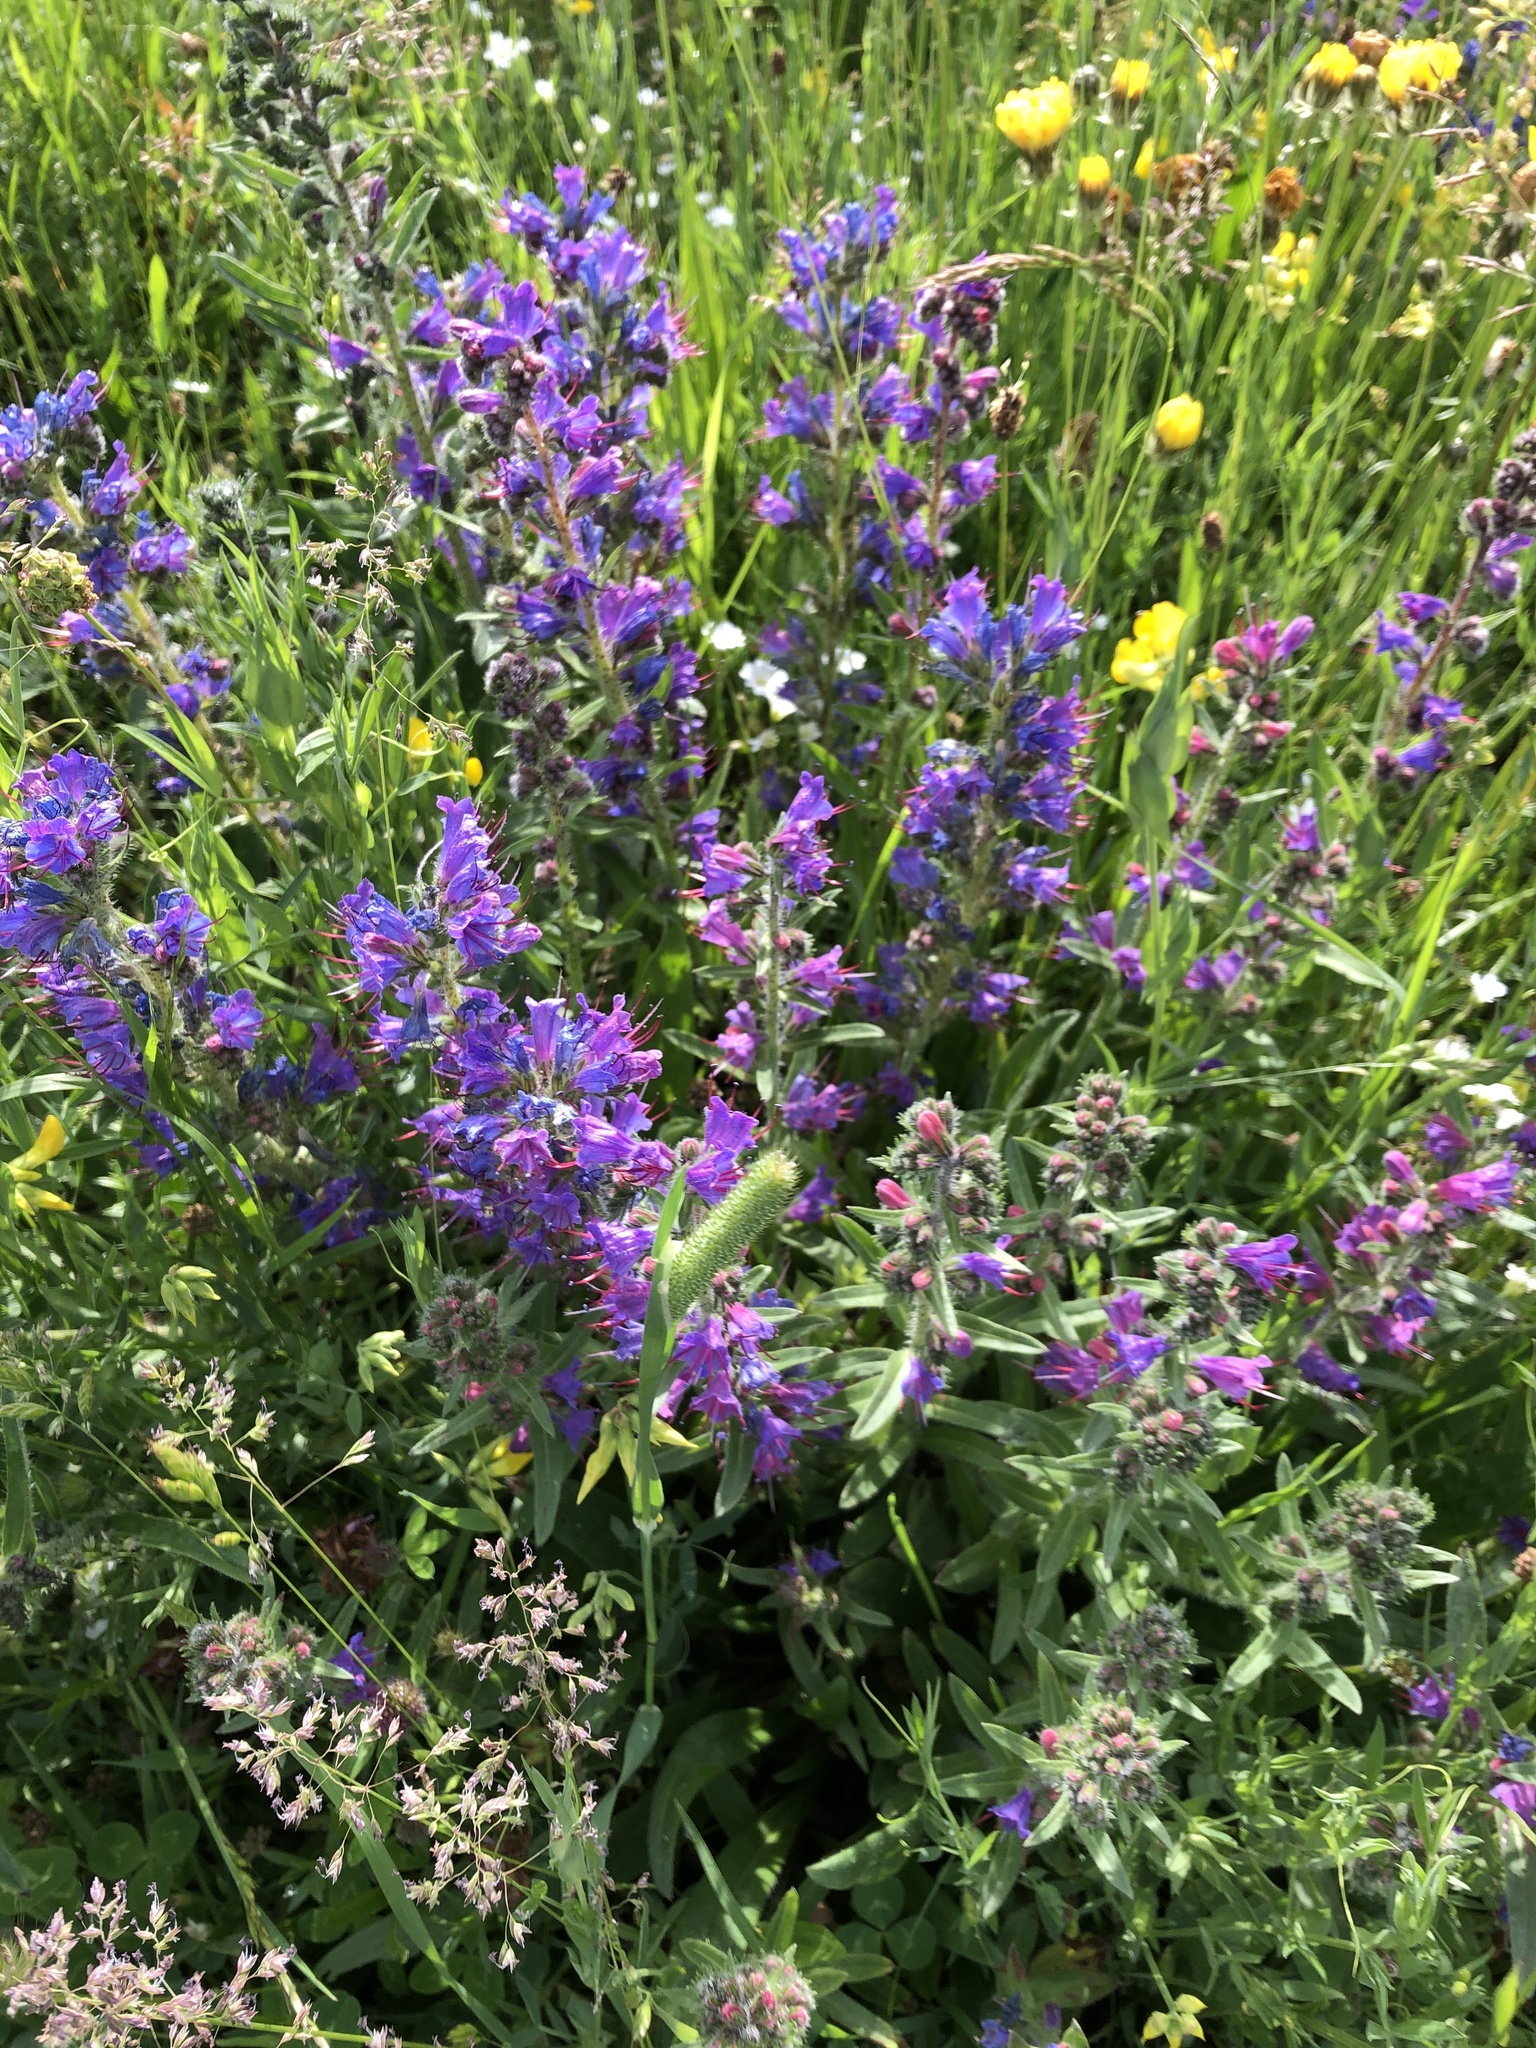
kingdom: Plantae
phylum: Tracheophyta
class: Magnoliopsida
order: Boraginales
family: Boraginaceae
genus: Echium
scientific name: Echium vulgare
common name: Common viper's bugloss
